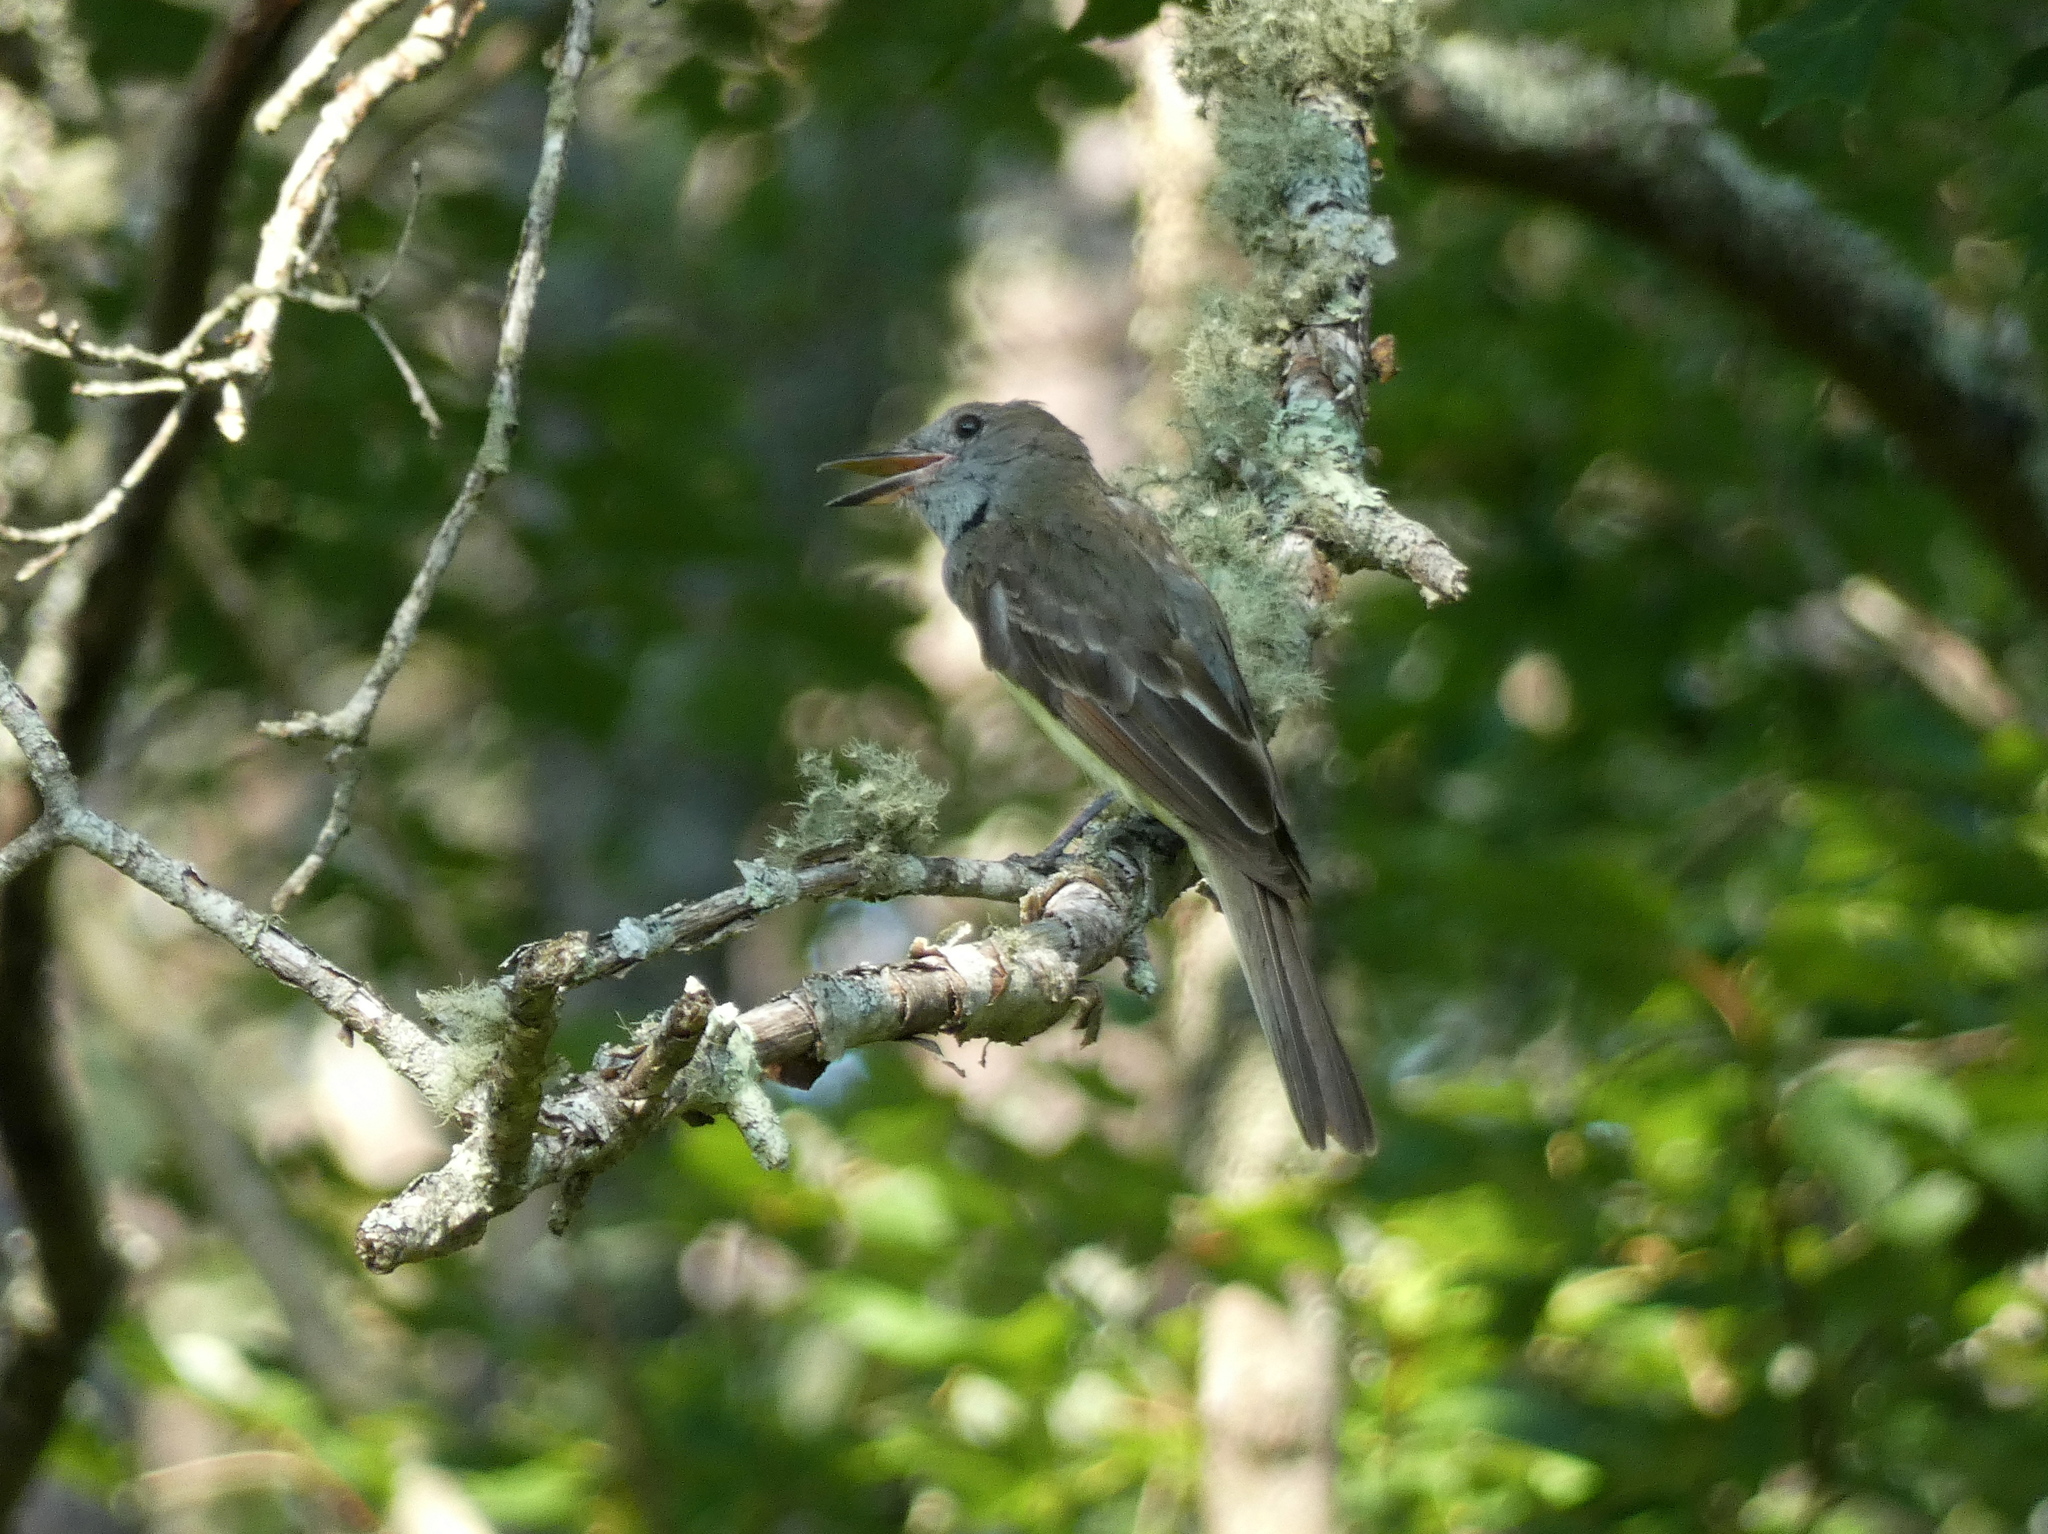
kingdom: Animalia
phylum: Chordata
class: Aves
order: Passeriformes
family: Tyrannidae
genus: Myiarchus
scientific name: Myiarchus crinitus
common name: Great crested flycatcher
